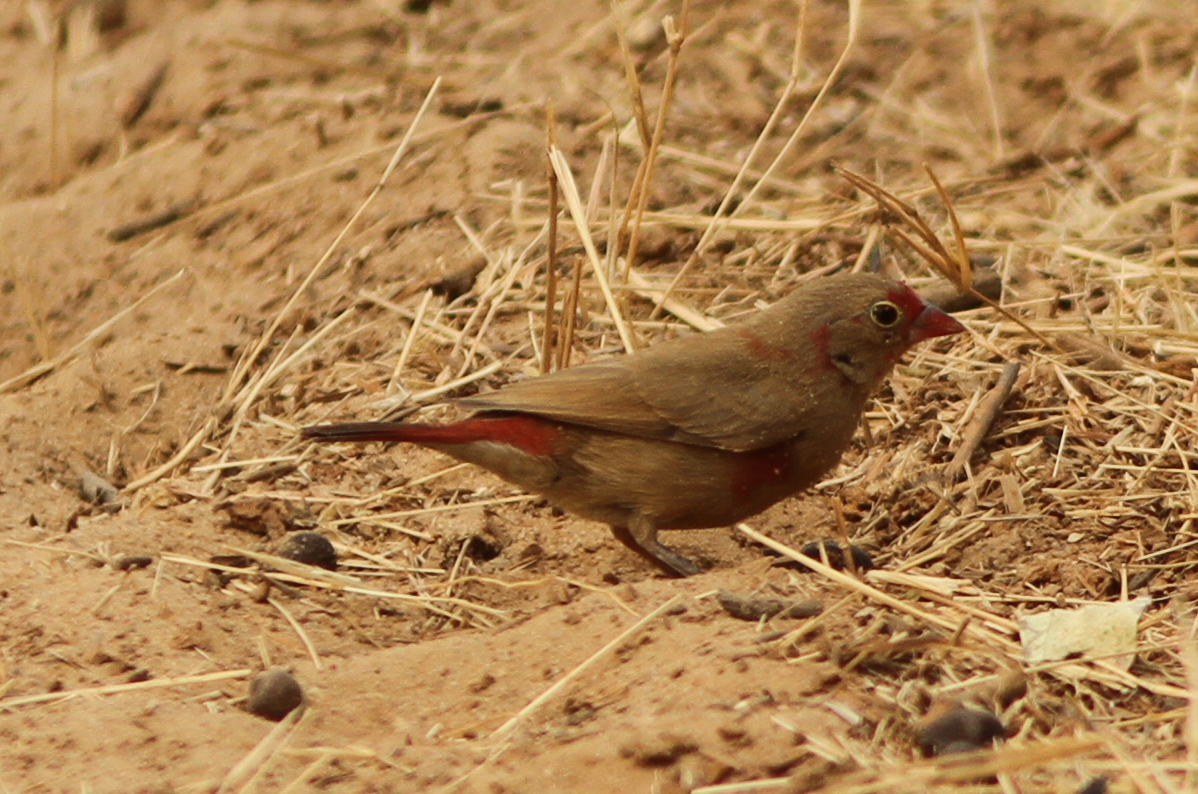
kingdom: Animalia
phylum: Chordata
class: Aves
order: Passeriformes
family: Estrildidae
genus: Lagonosticta
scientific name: Lagonosticta senegala
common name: Red-billed firefinch
